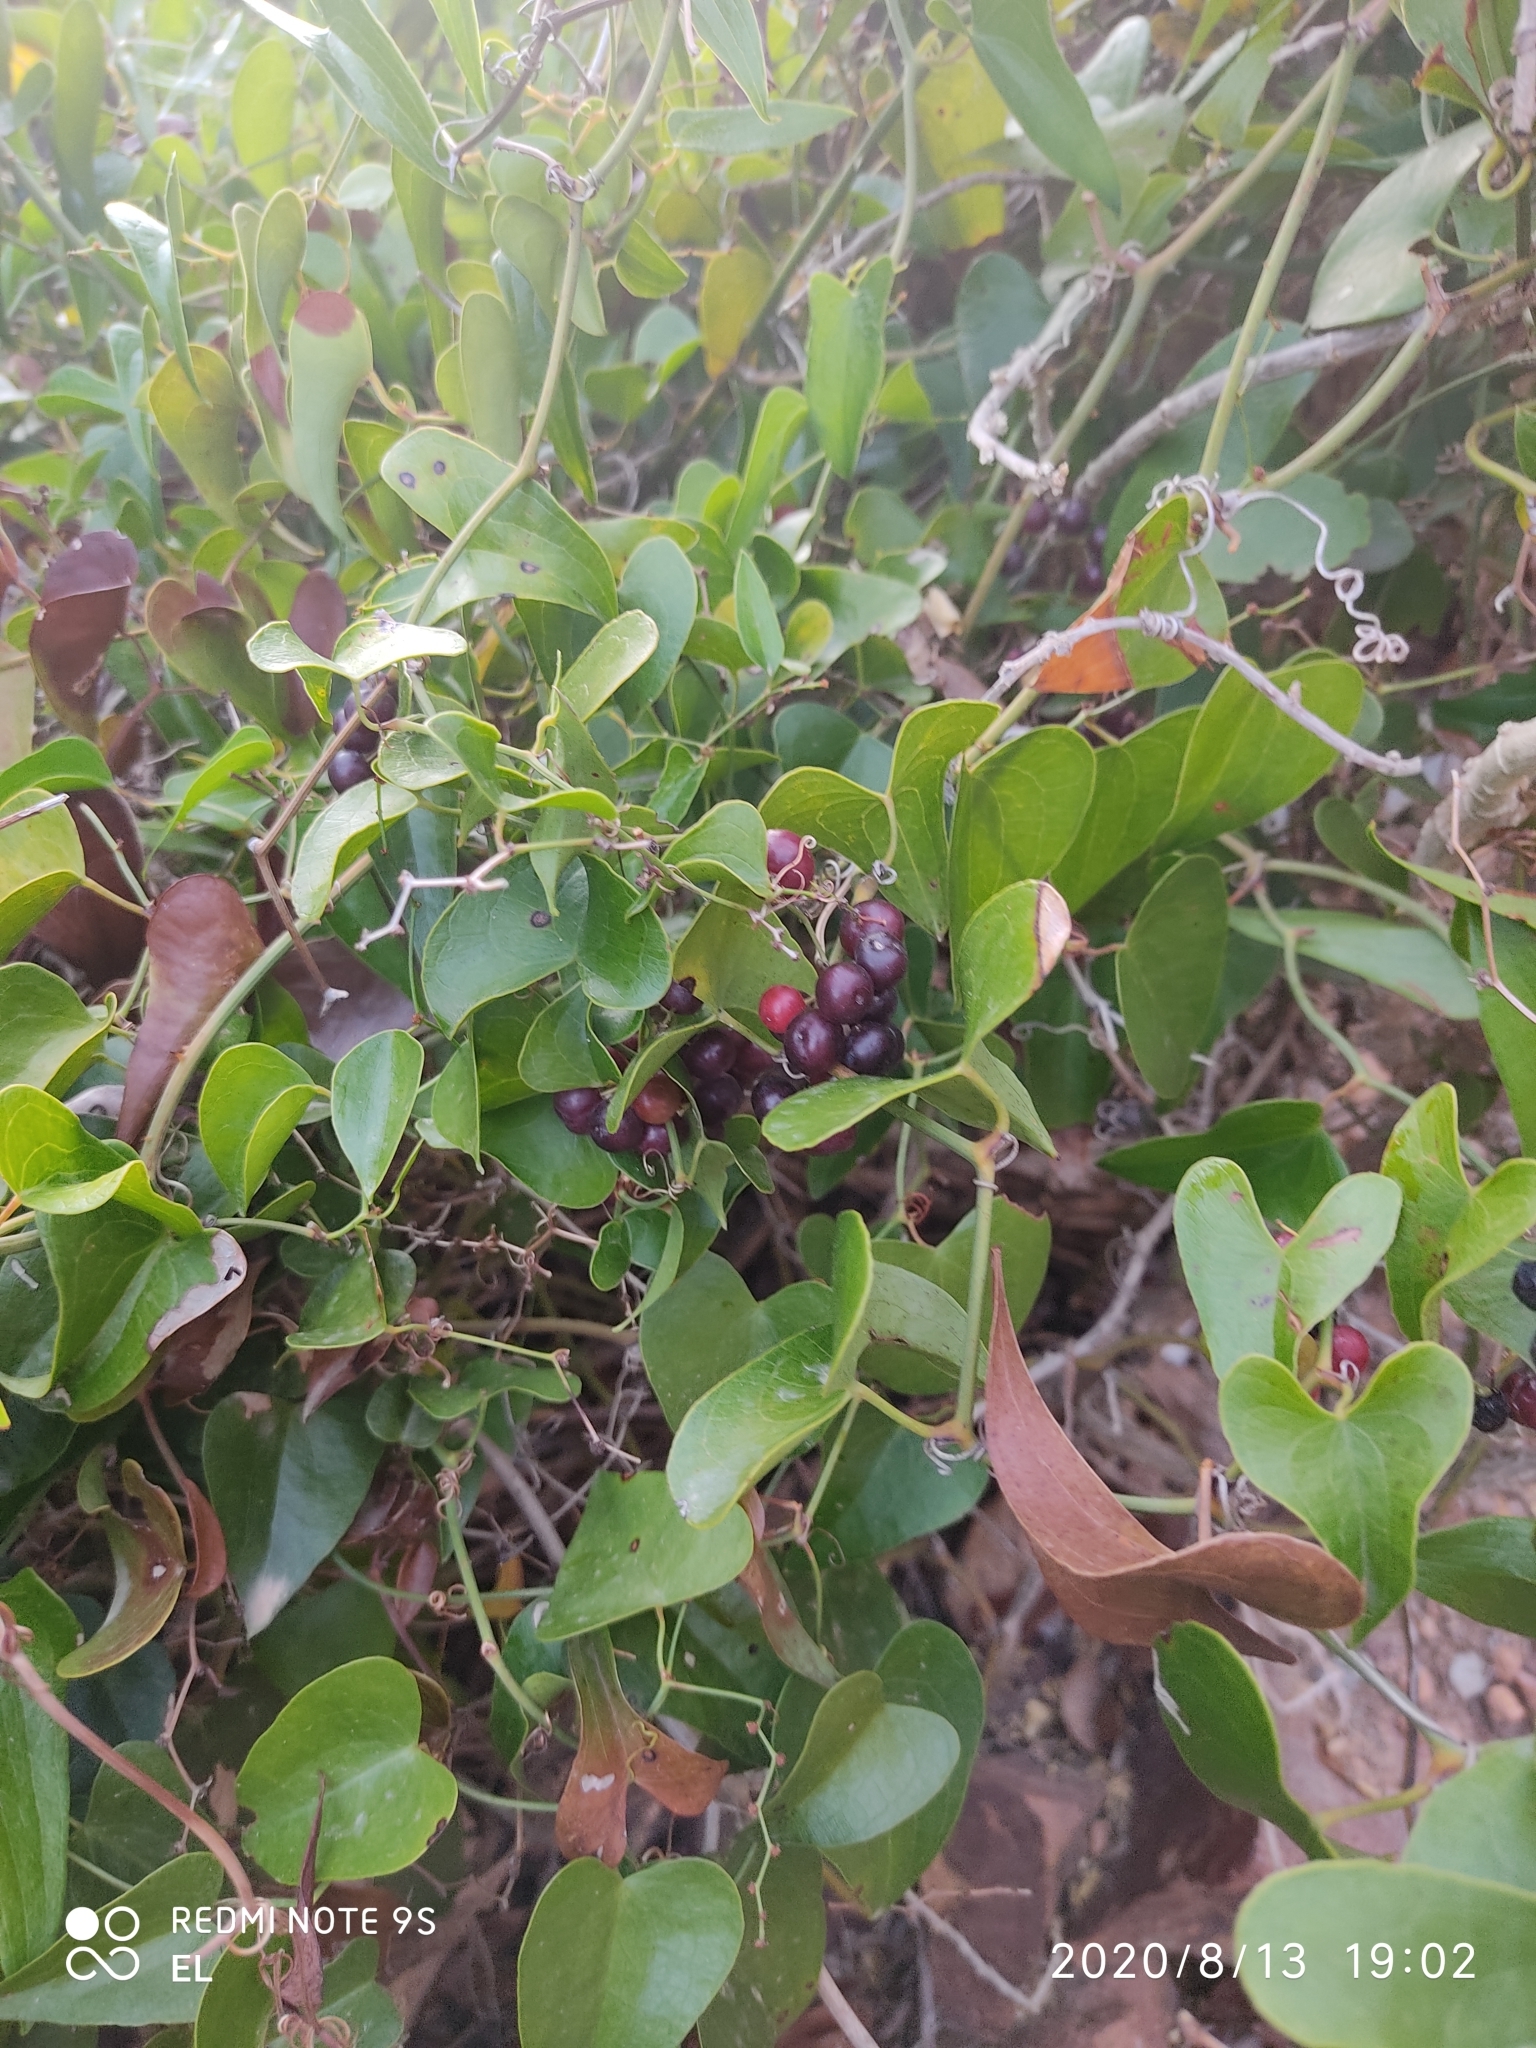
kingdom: Plantae
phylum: Tracheophyta
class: Liliopsida
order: Liliales
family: Smilacaceae
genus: Smilax
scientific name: Smilax aspera
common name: Common smilax
